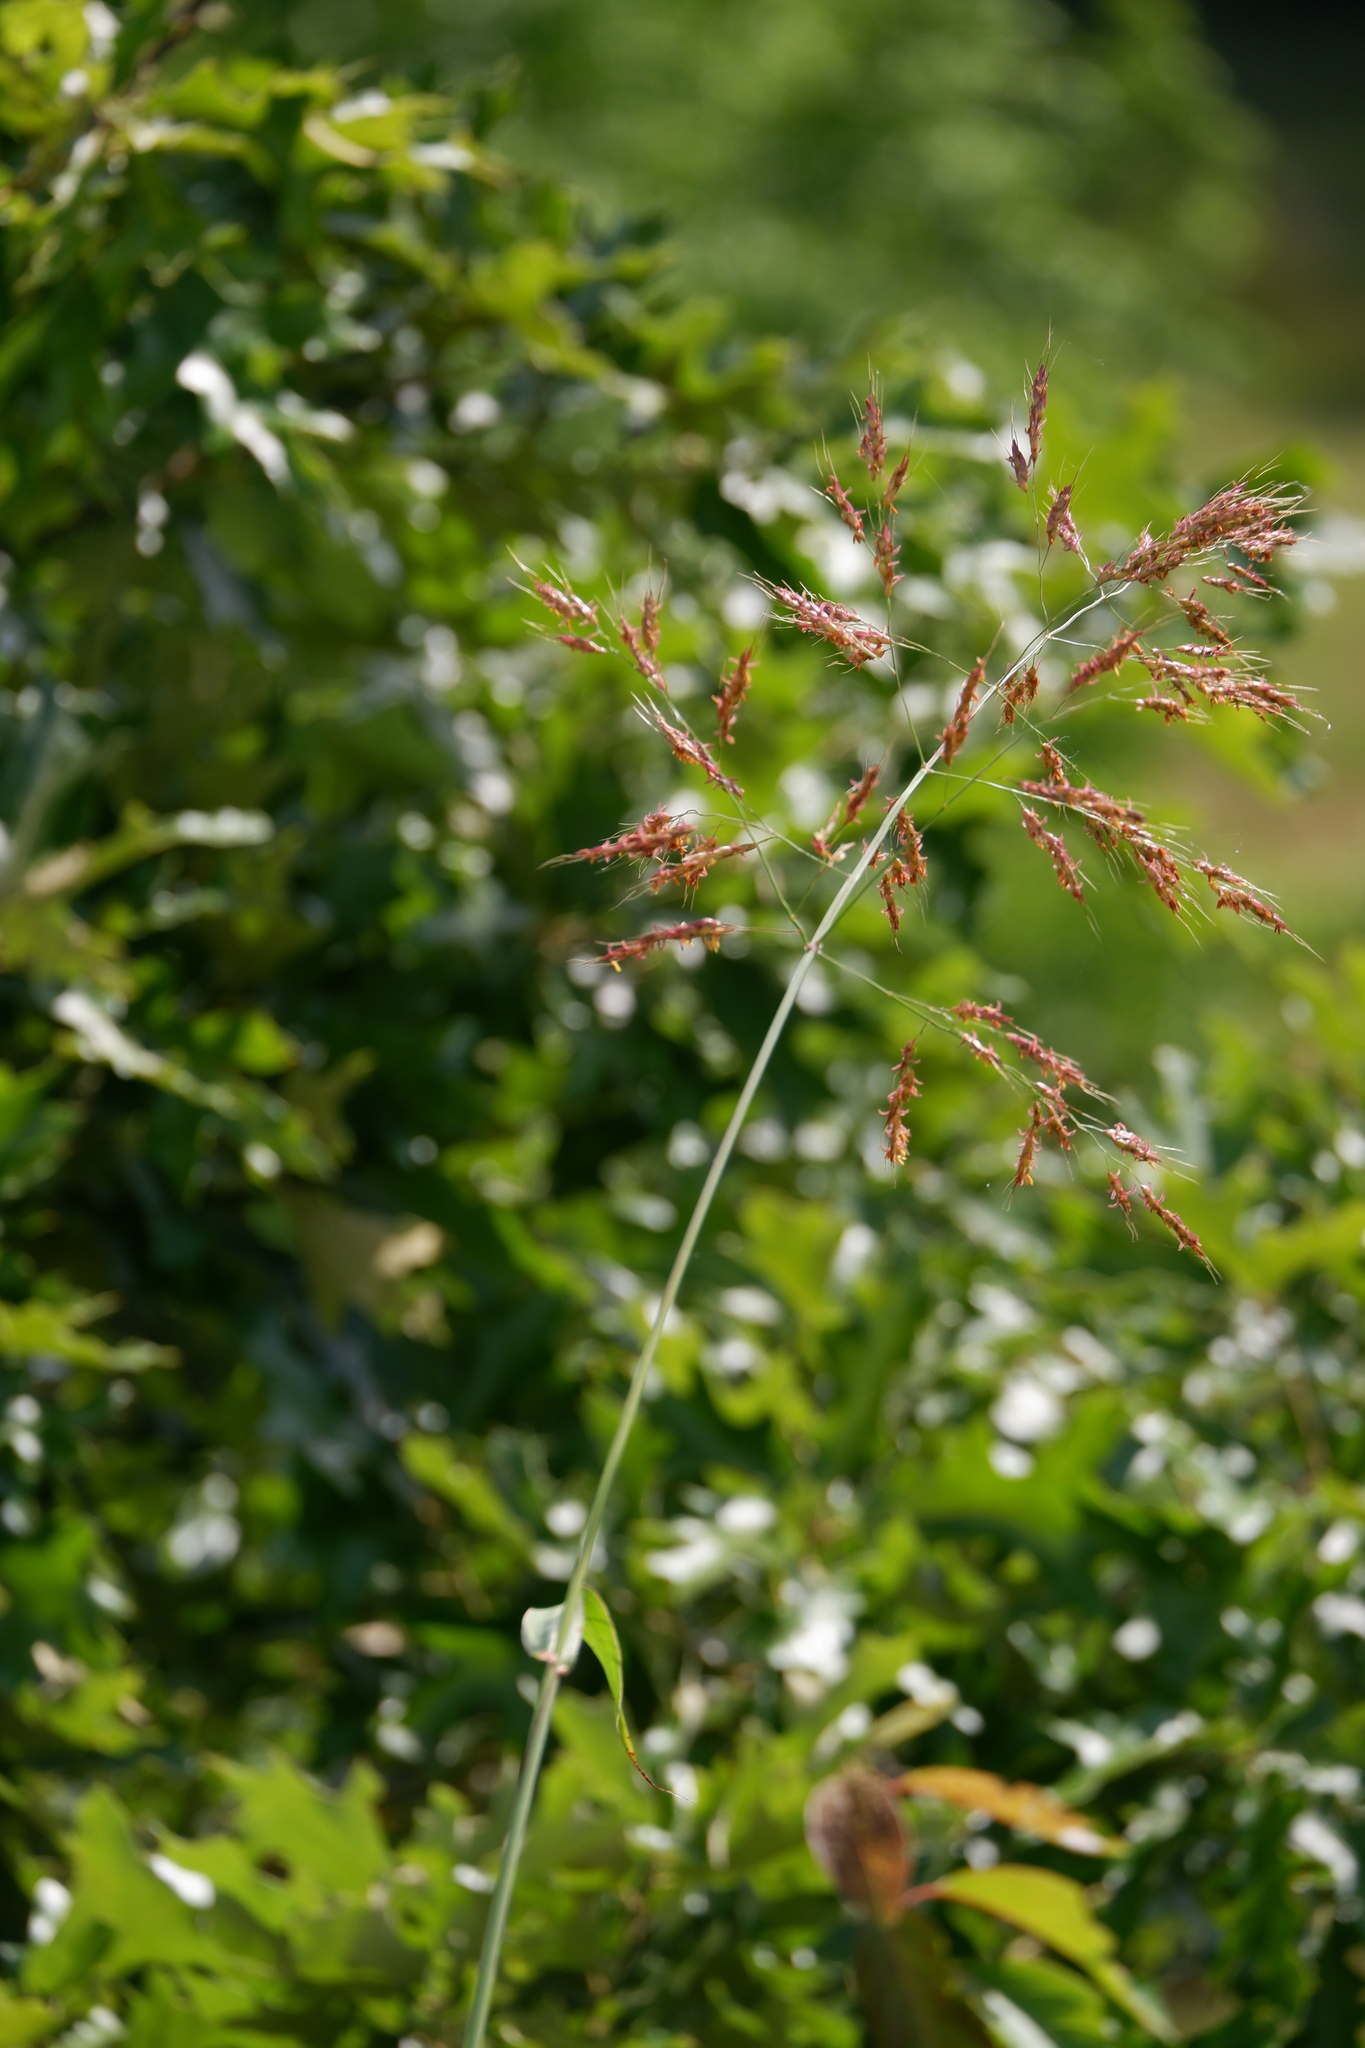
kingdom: Plantae
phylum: Tracheophyta
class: Liliopsida
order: Poales
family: Poaceae
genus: Sorghum
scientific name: Sorghum halepense
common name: Johnson-grass
